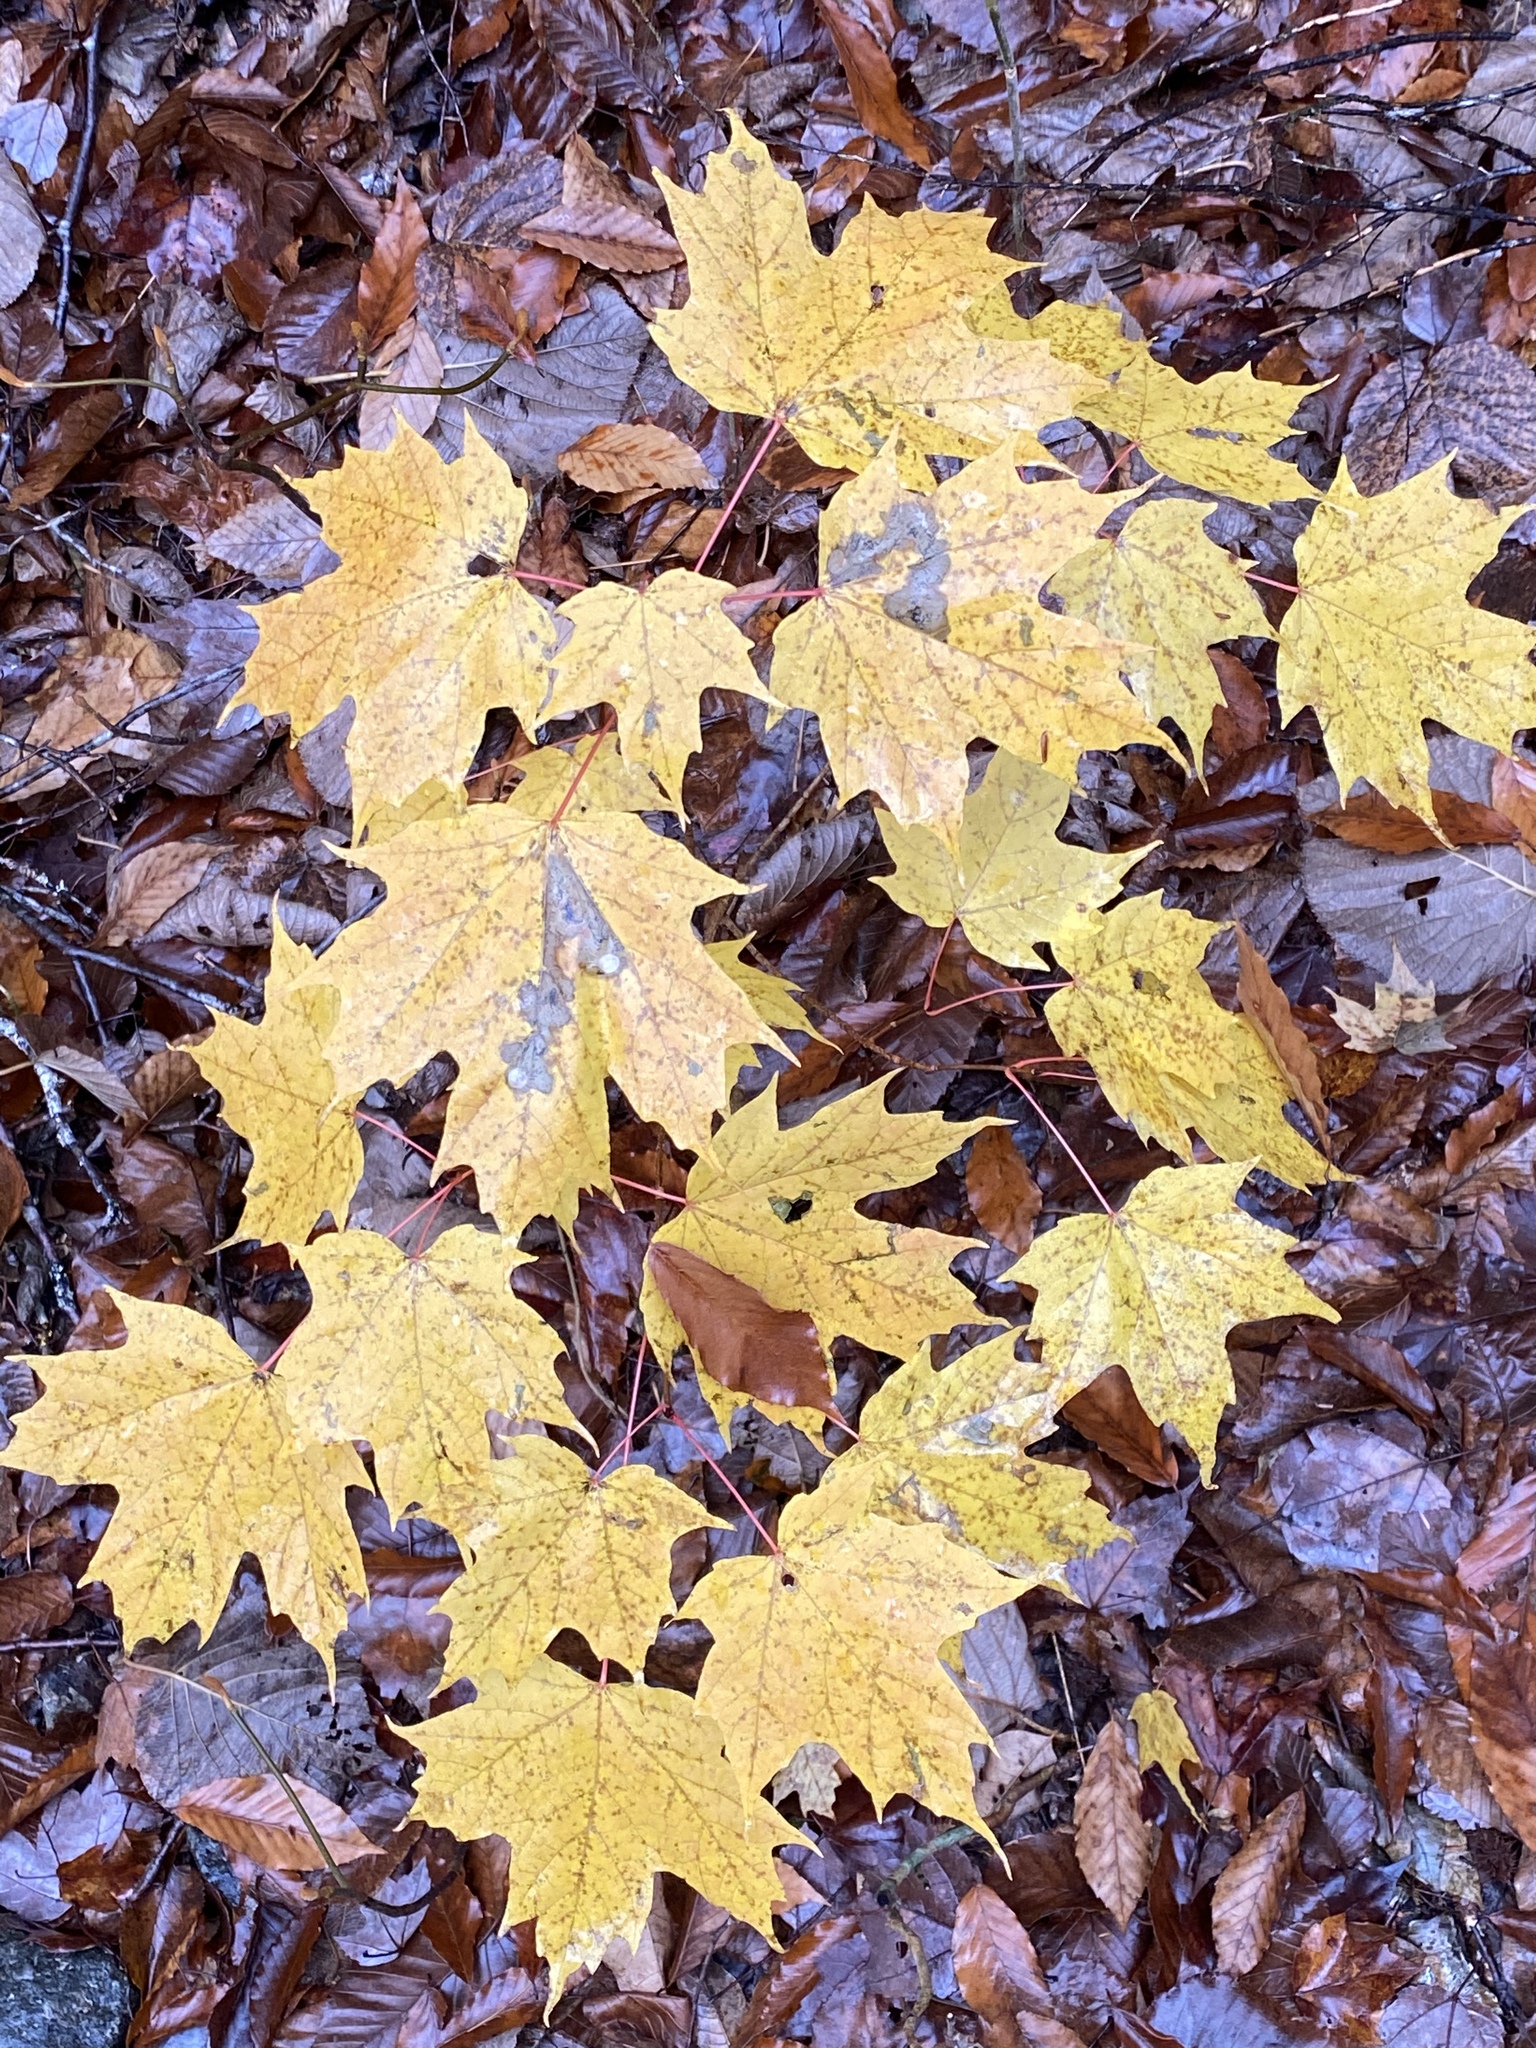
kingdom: Plantae
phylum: Tracheophyta
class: Magnoliopsida
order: Sapindales
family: Sapindaceae
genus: Acer
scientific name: Acer saccharum
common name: Sugar maple
